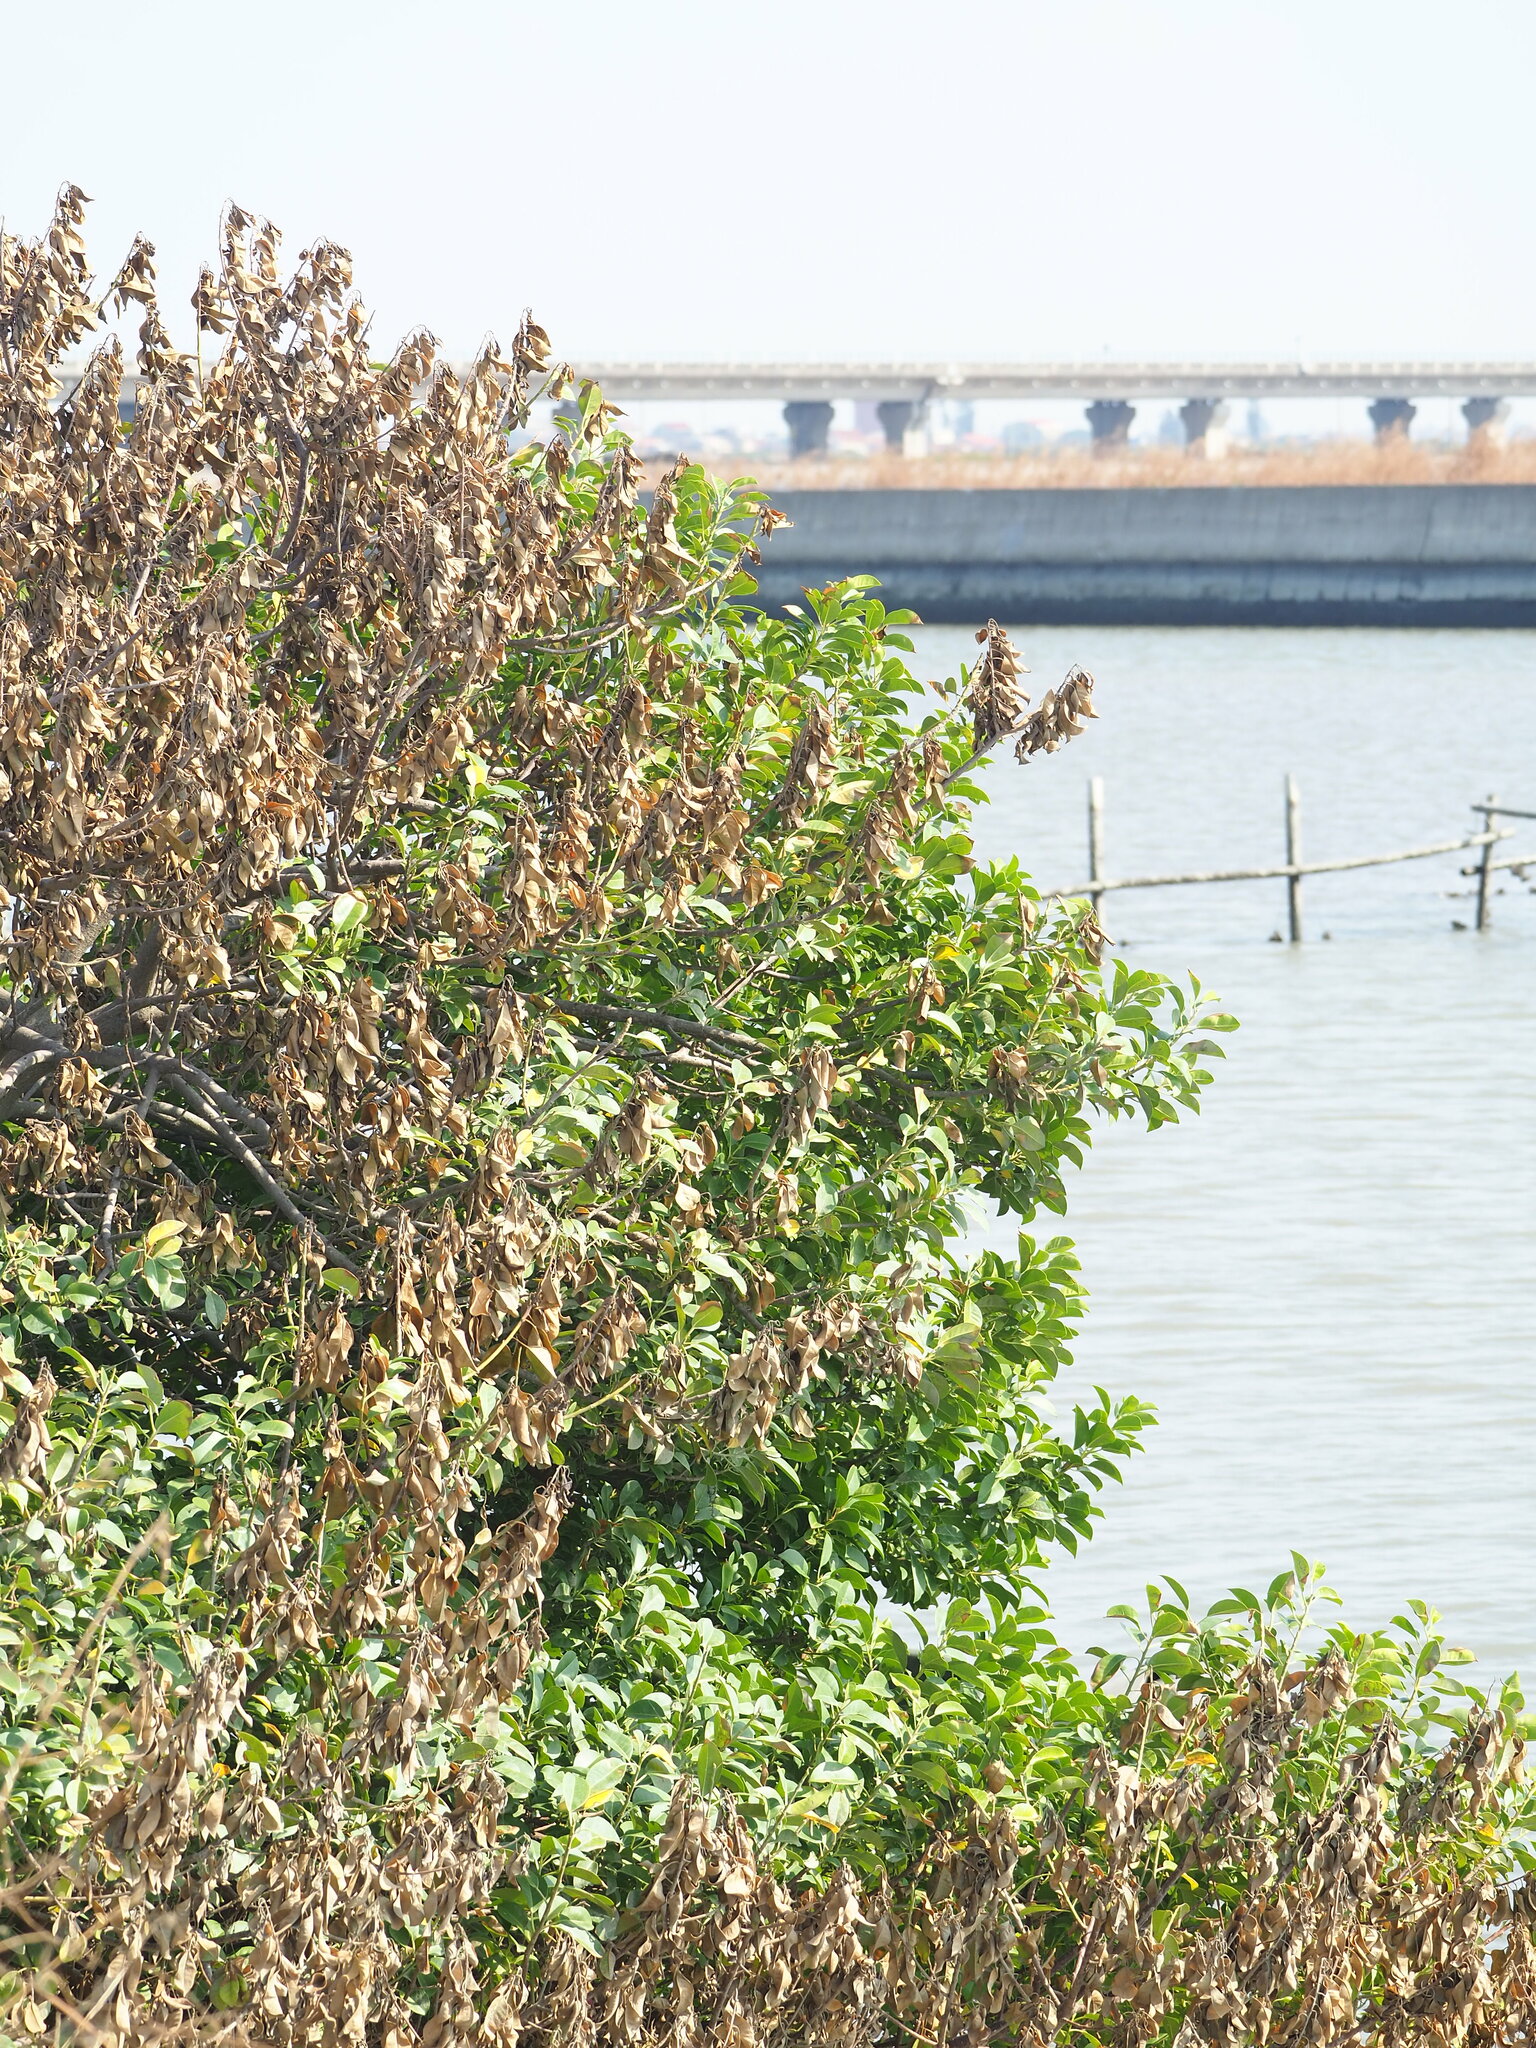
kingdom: Plantae
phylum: Tracheophyta
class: Magnoliopsida
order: Malpighiales
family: Euphorbiaceae
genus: Excoecaria
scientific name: Excoecaria agallocha
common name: River poisontree
